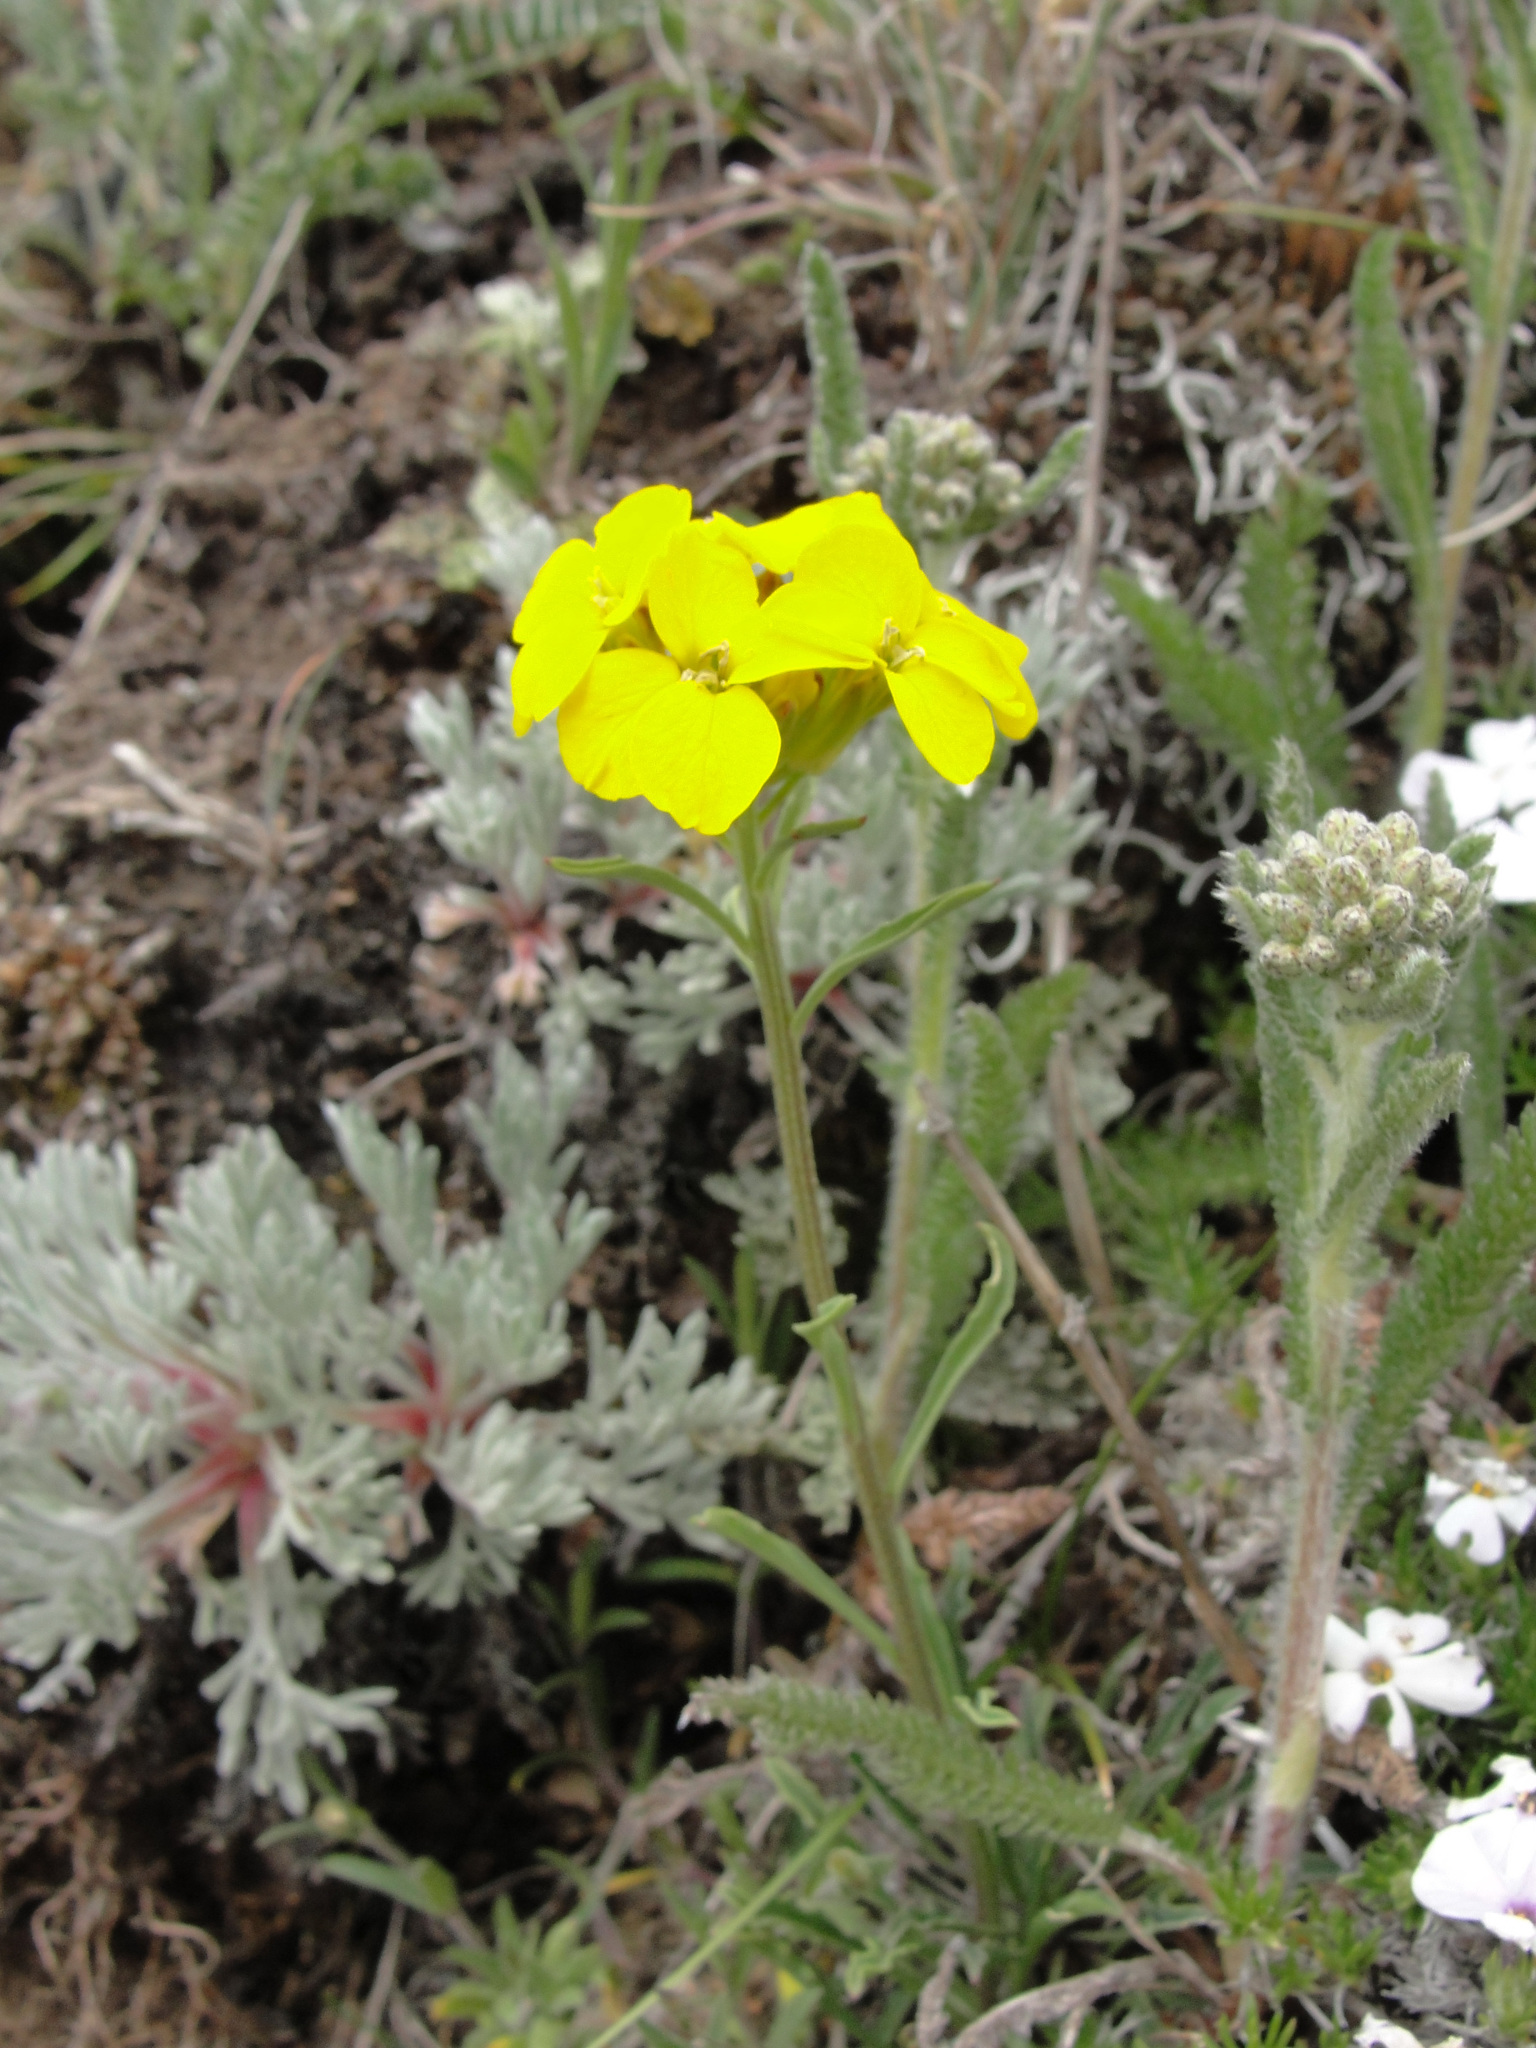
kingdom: Plantae
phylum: Tracheophyta
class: Magnoliopsida
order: Brassicales
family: Brassicaceae
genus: Erysimum
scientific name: Erysimum arenicola
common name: Cascade wallflower
